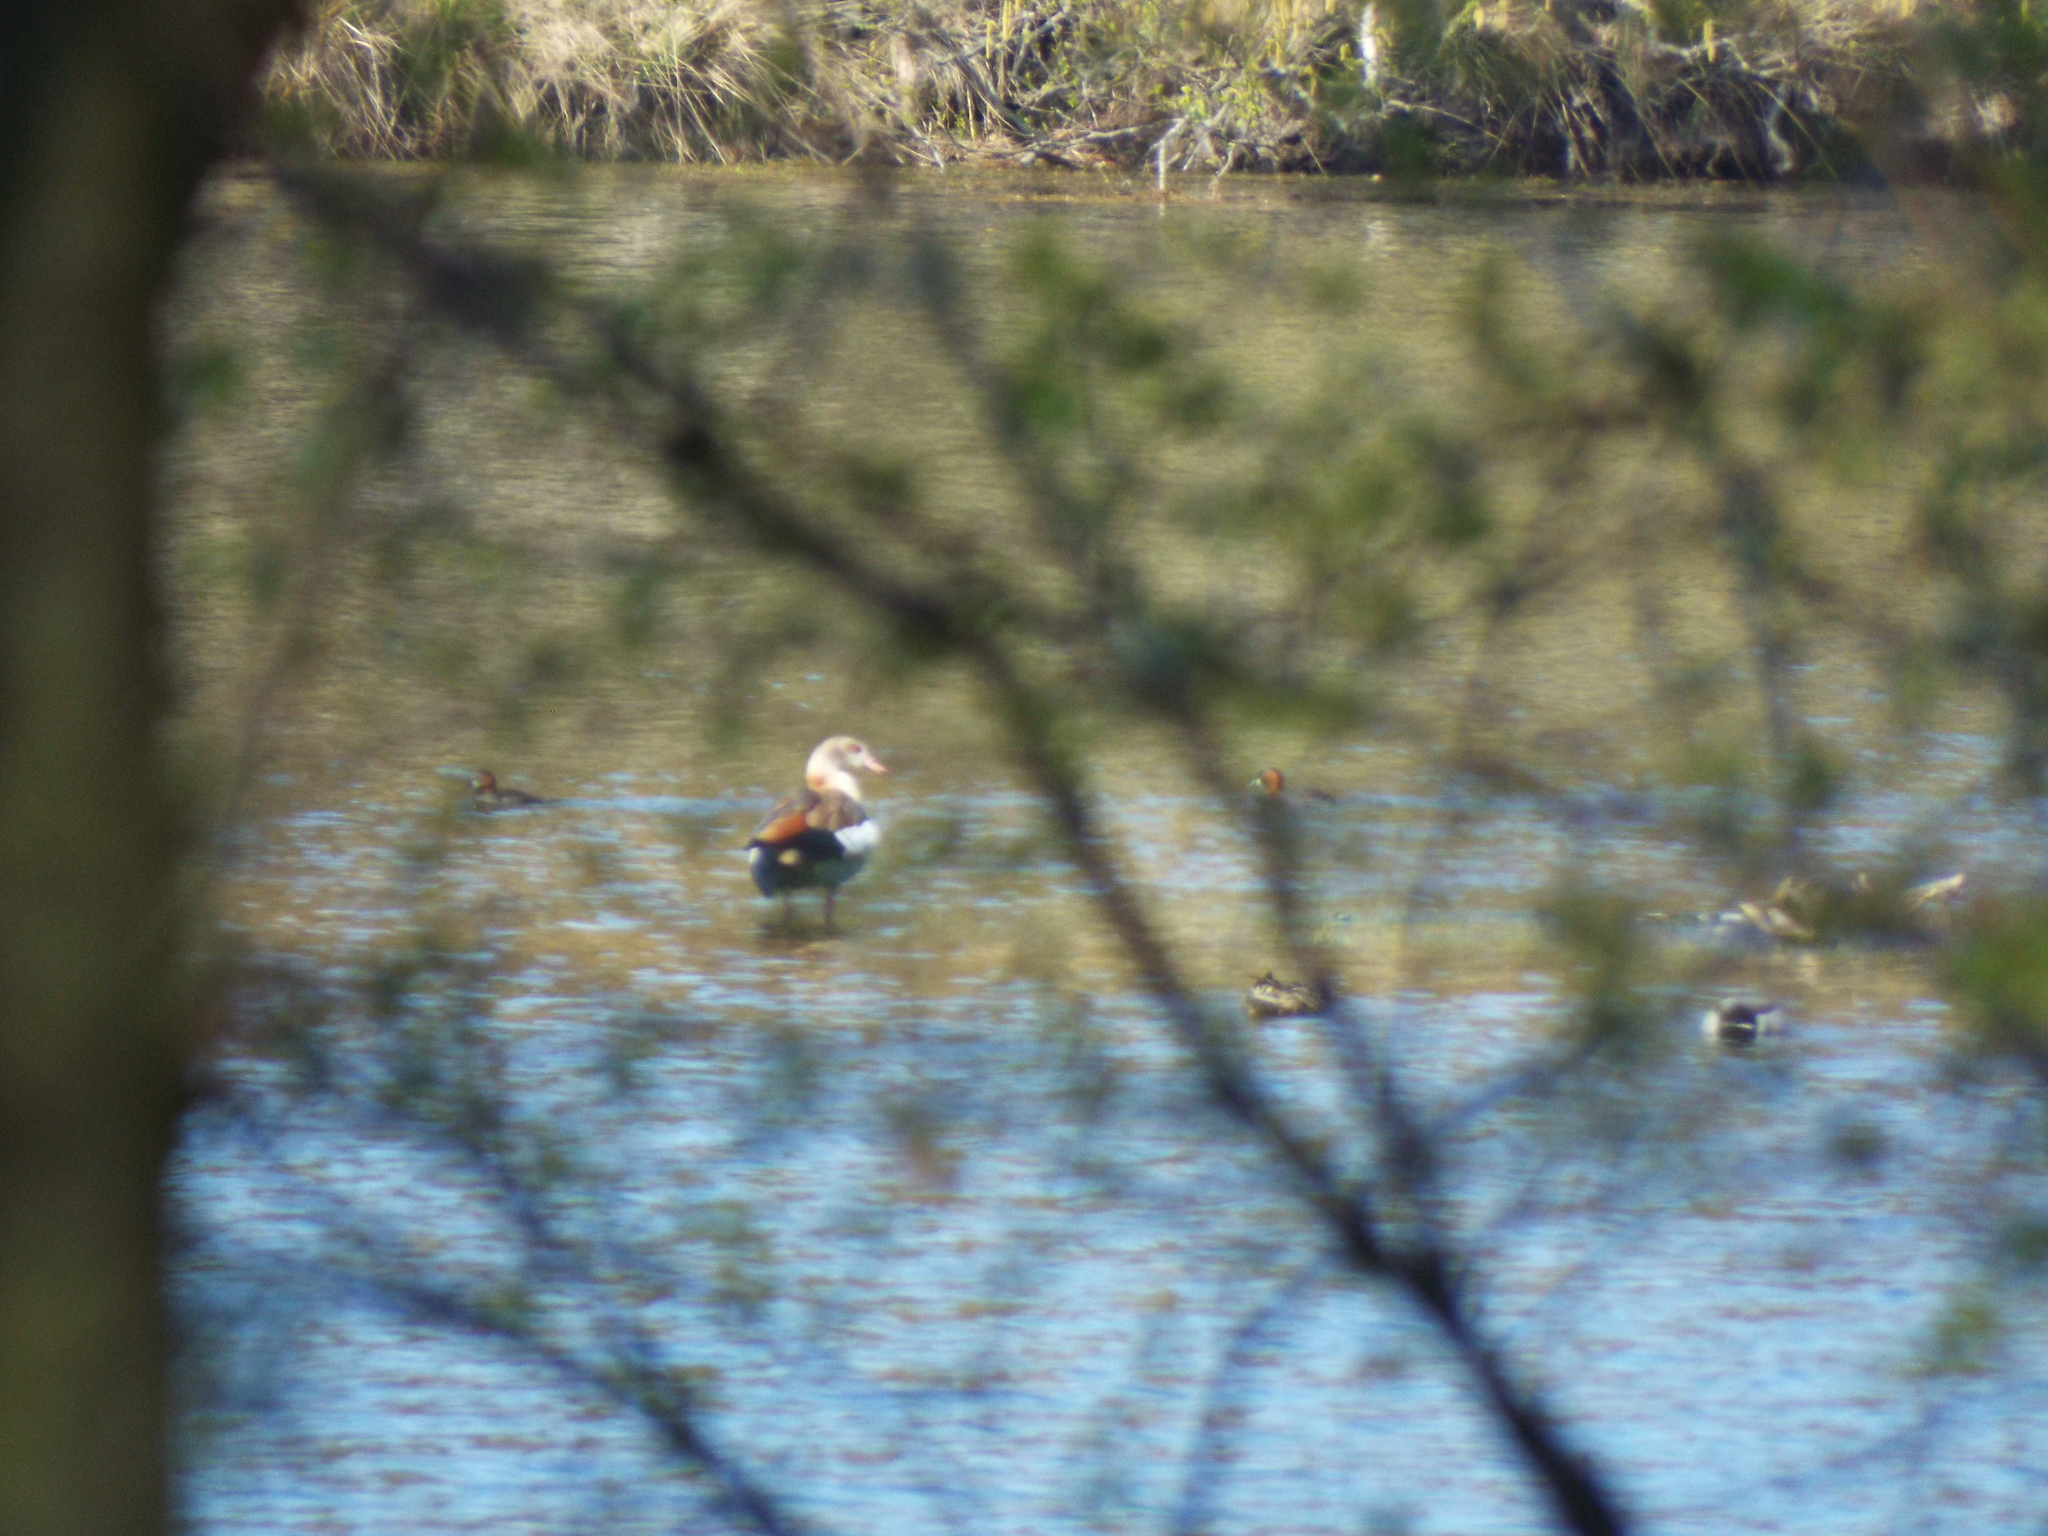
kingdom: Animalia
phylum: Chordata
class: Aves
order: Anseriformes
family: Anatidae
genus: Alopochen
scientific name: Alopochen aegyptiaca
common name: Egyptian goose
